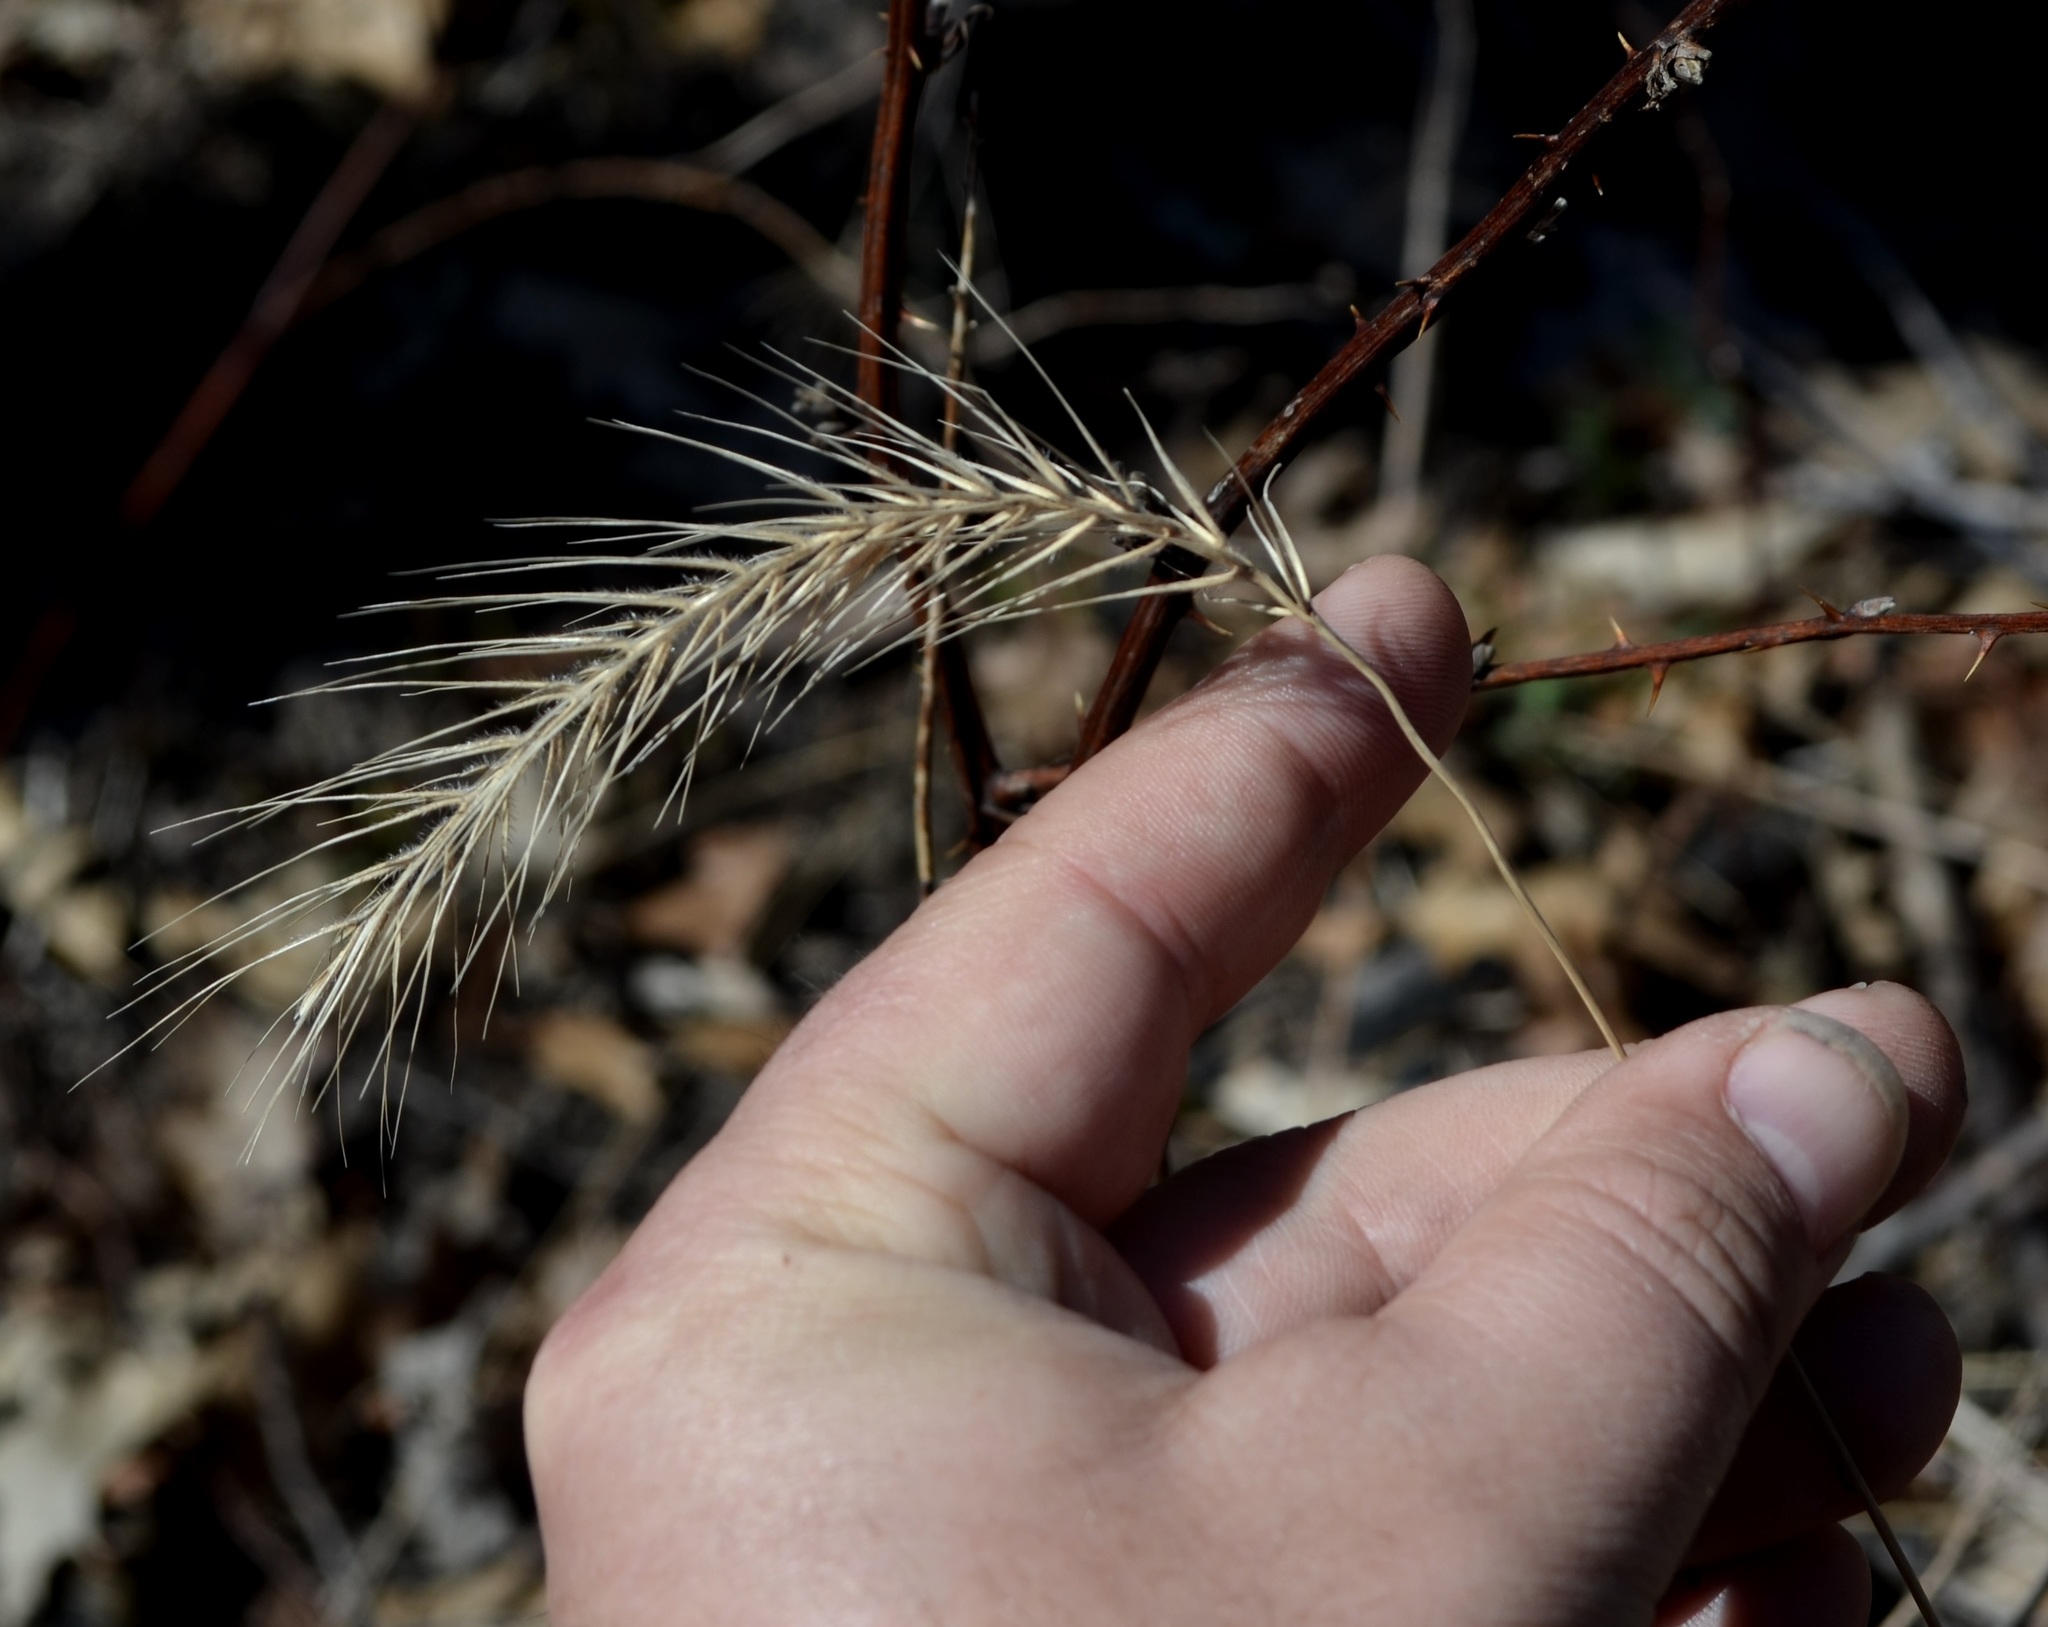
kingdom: Plantae
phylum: Tracheophyta
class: Liliopsida
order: Poales
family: Poaceae
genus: Elymus
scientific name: Elymus villosus
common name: Downy wild rye
